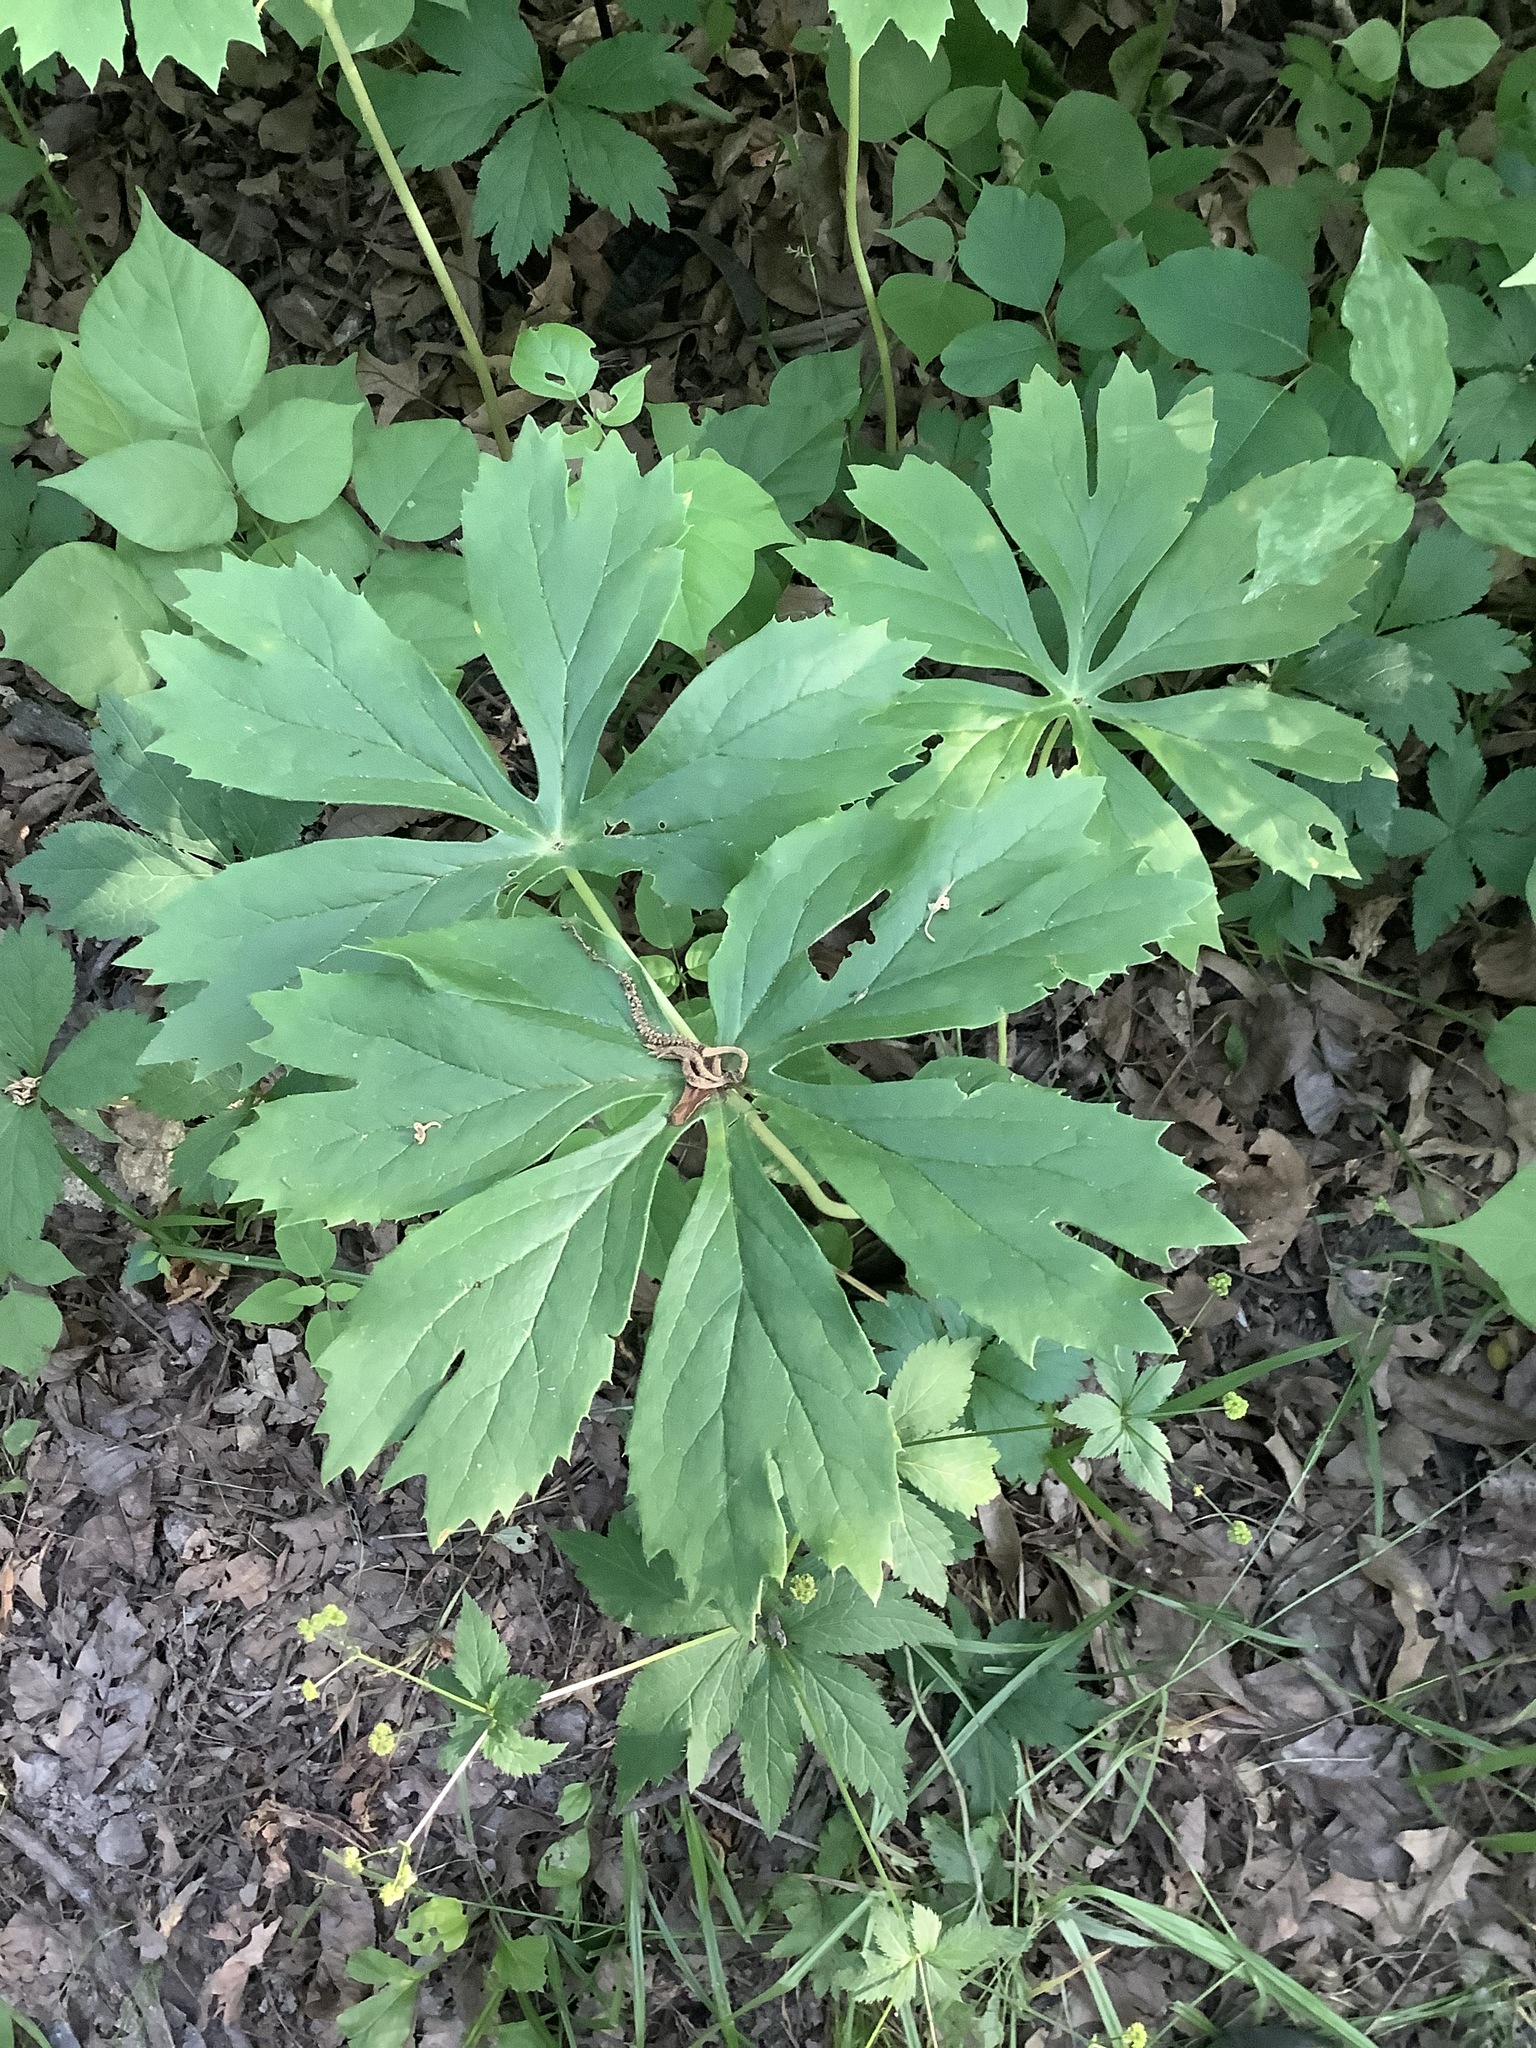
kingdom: Plantae
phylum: Tracheophyta
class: Magnoliopsida
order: Ranunculales
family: Berberidaceae
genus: Podophyllum
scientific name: Podophyllum peltatum
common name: Wild mandrake
